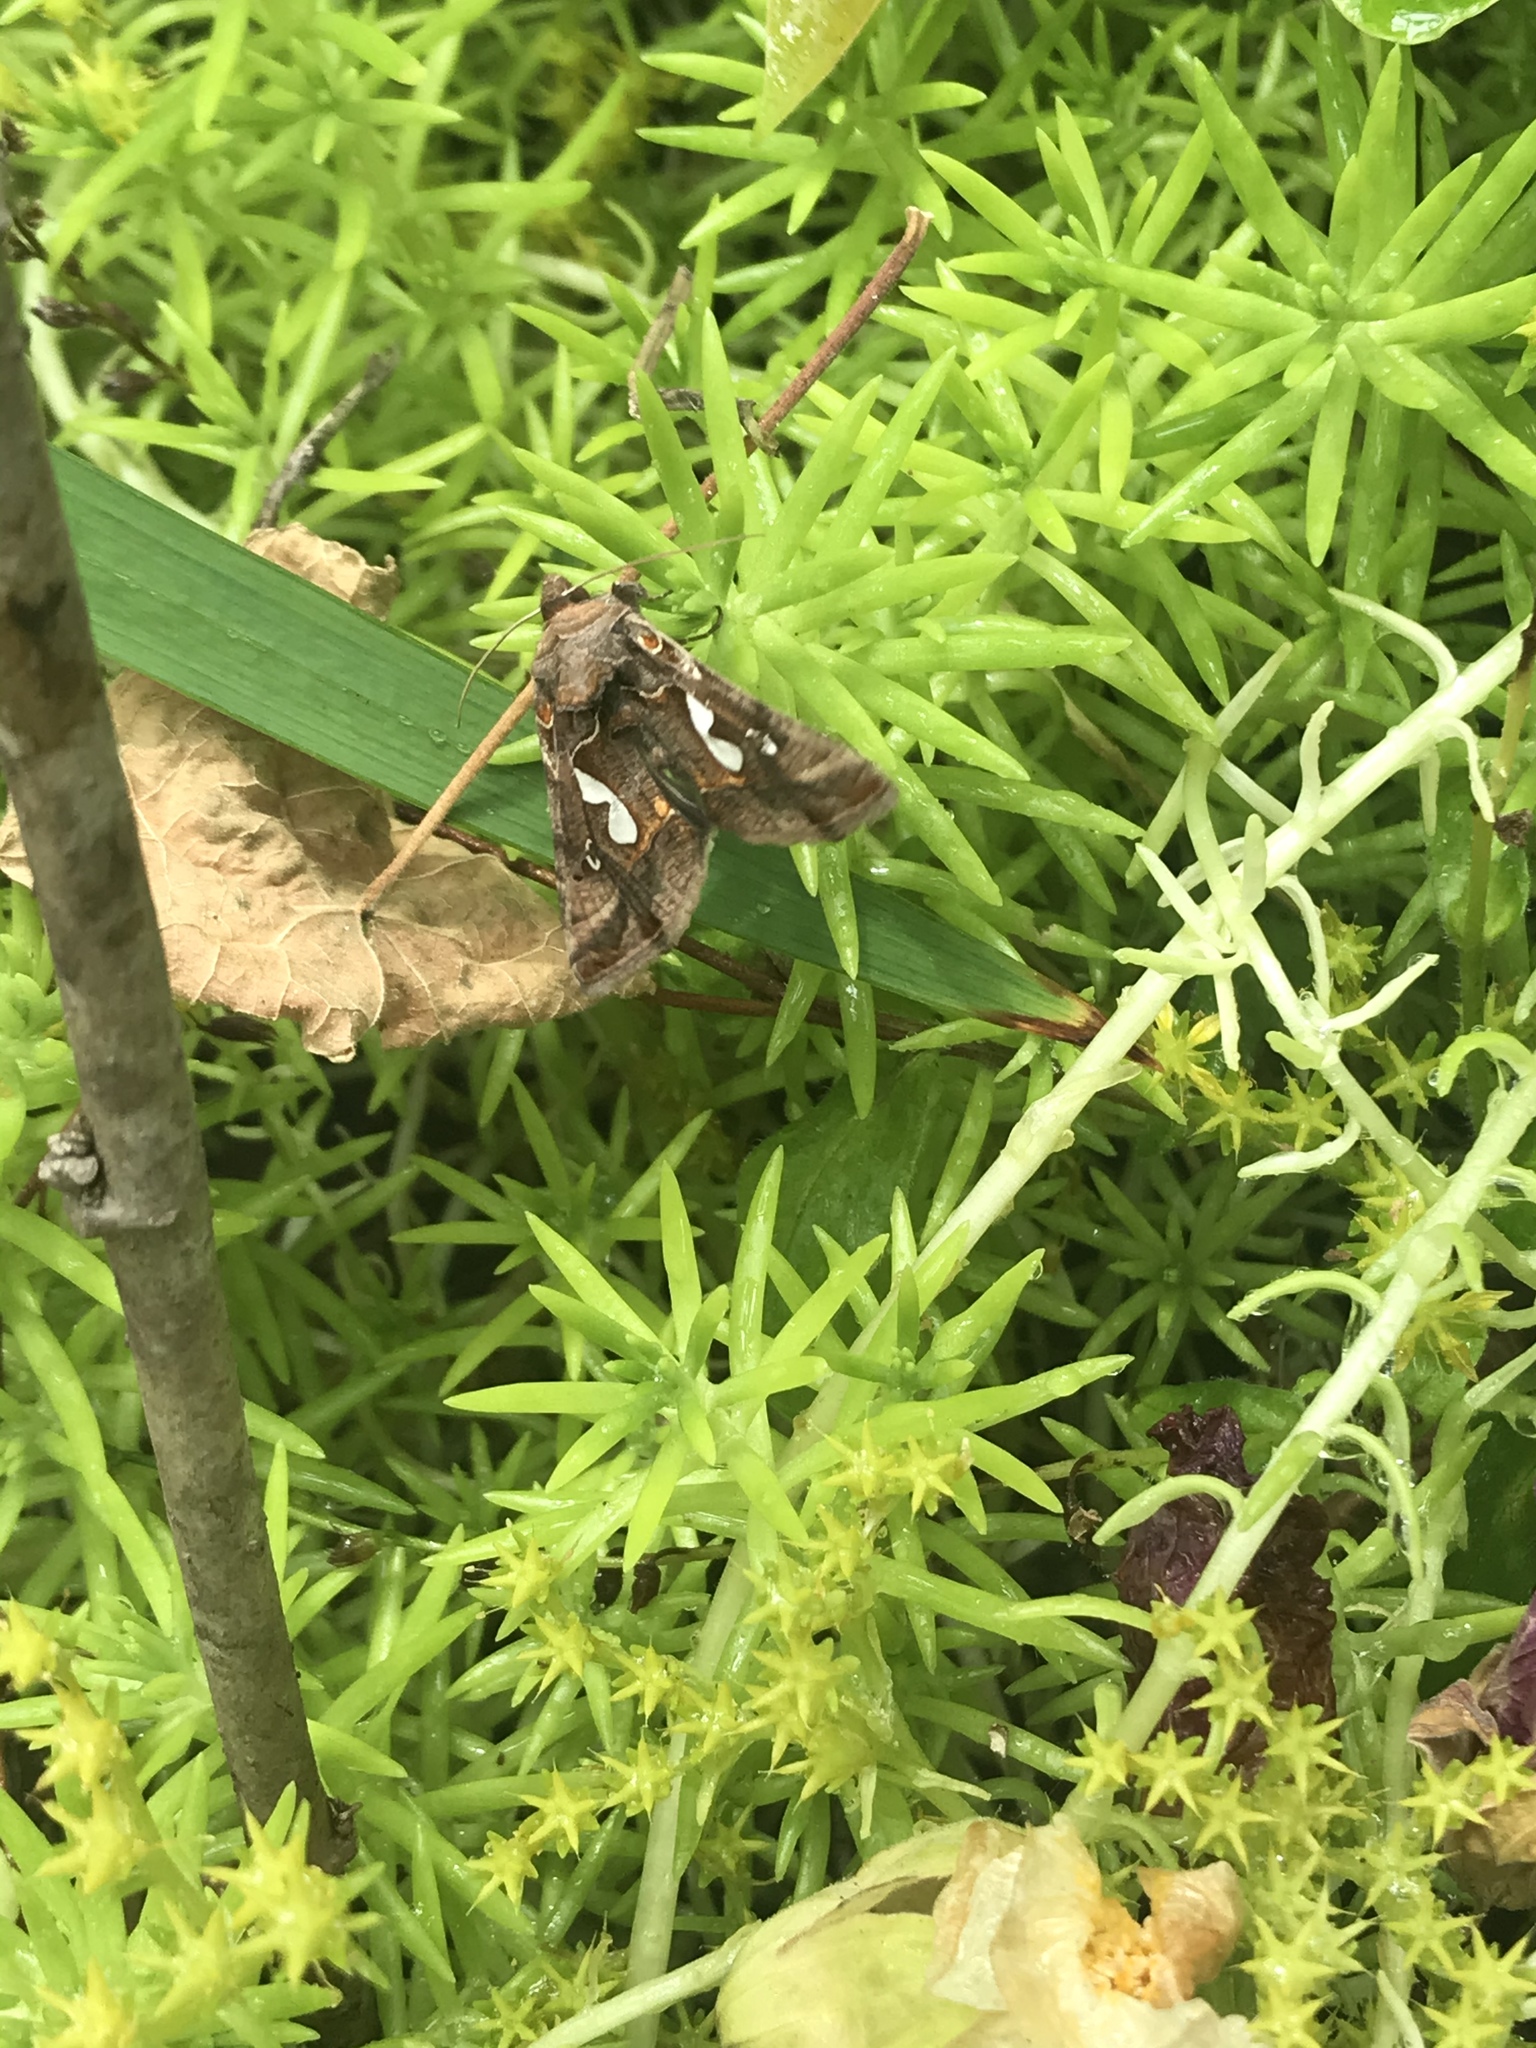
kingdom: Animalia
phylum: Arthropoda
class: Insecta
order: Lepidoptera
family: Noctuidae
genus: Megalographa
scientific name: Megalographa biloba
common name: Cutworm
